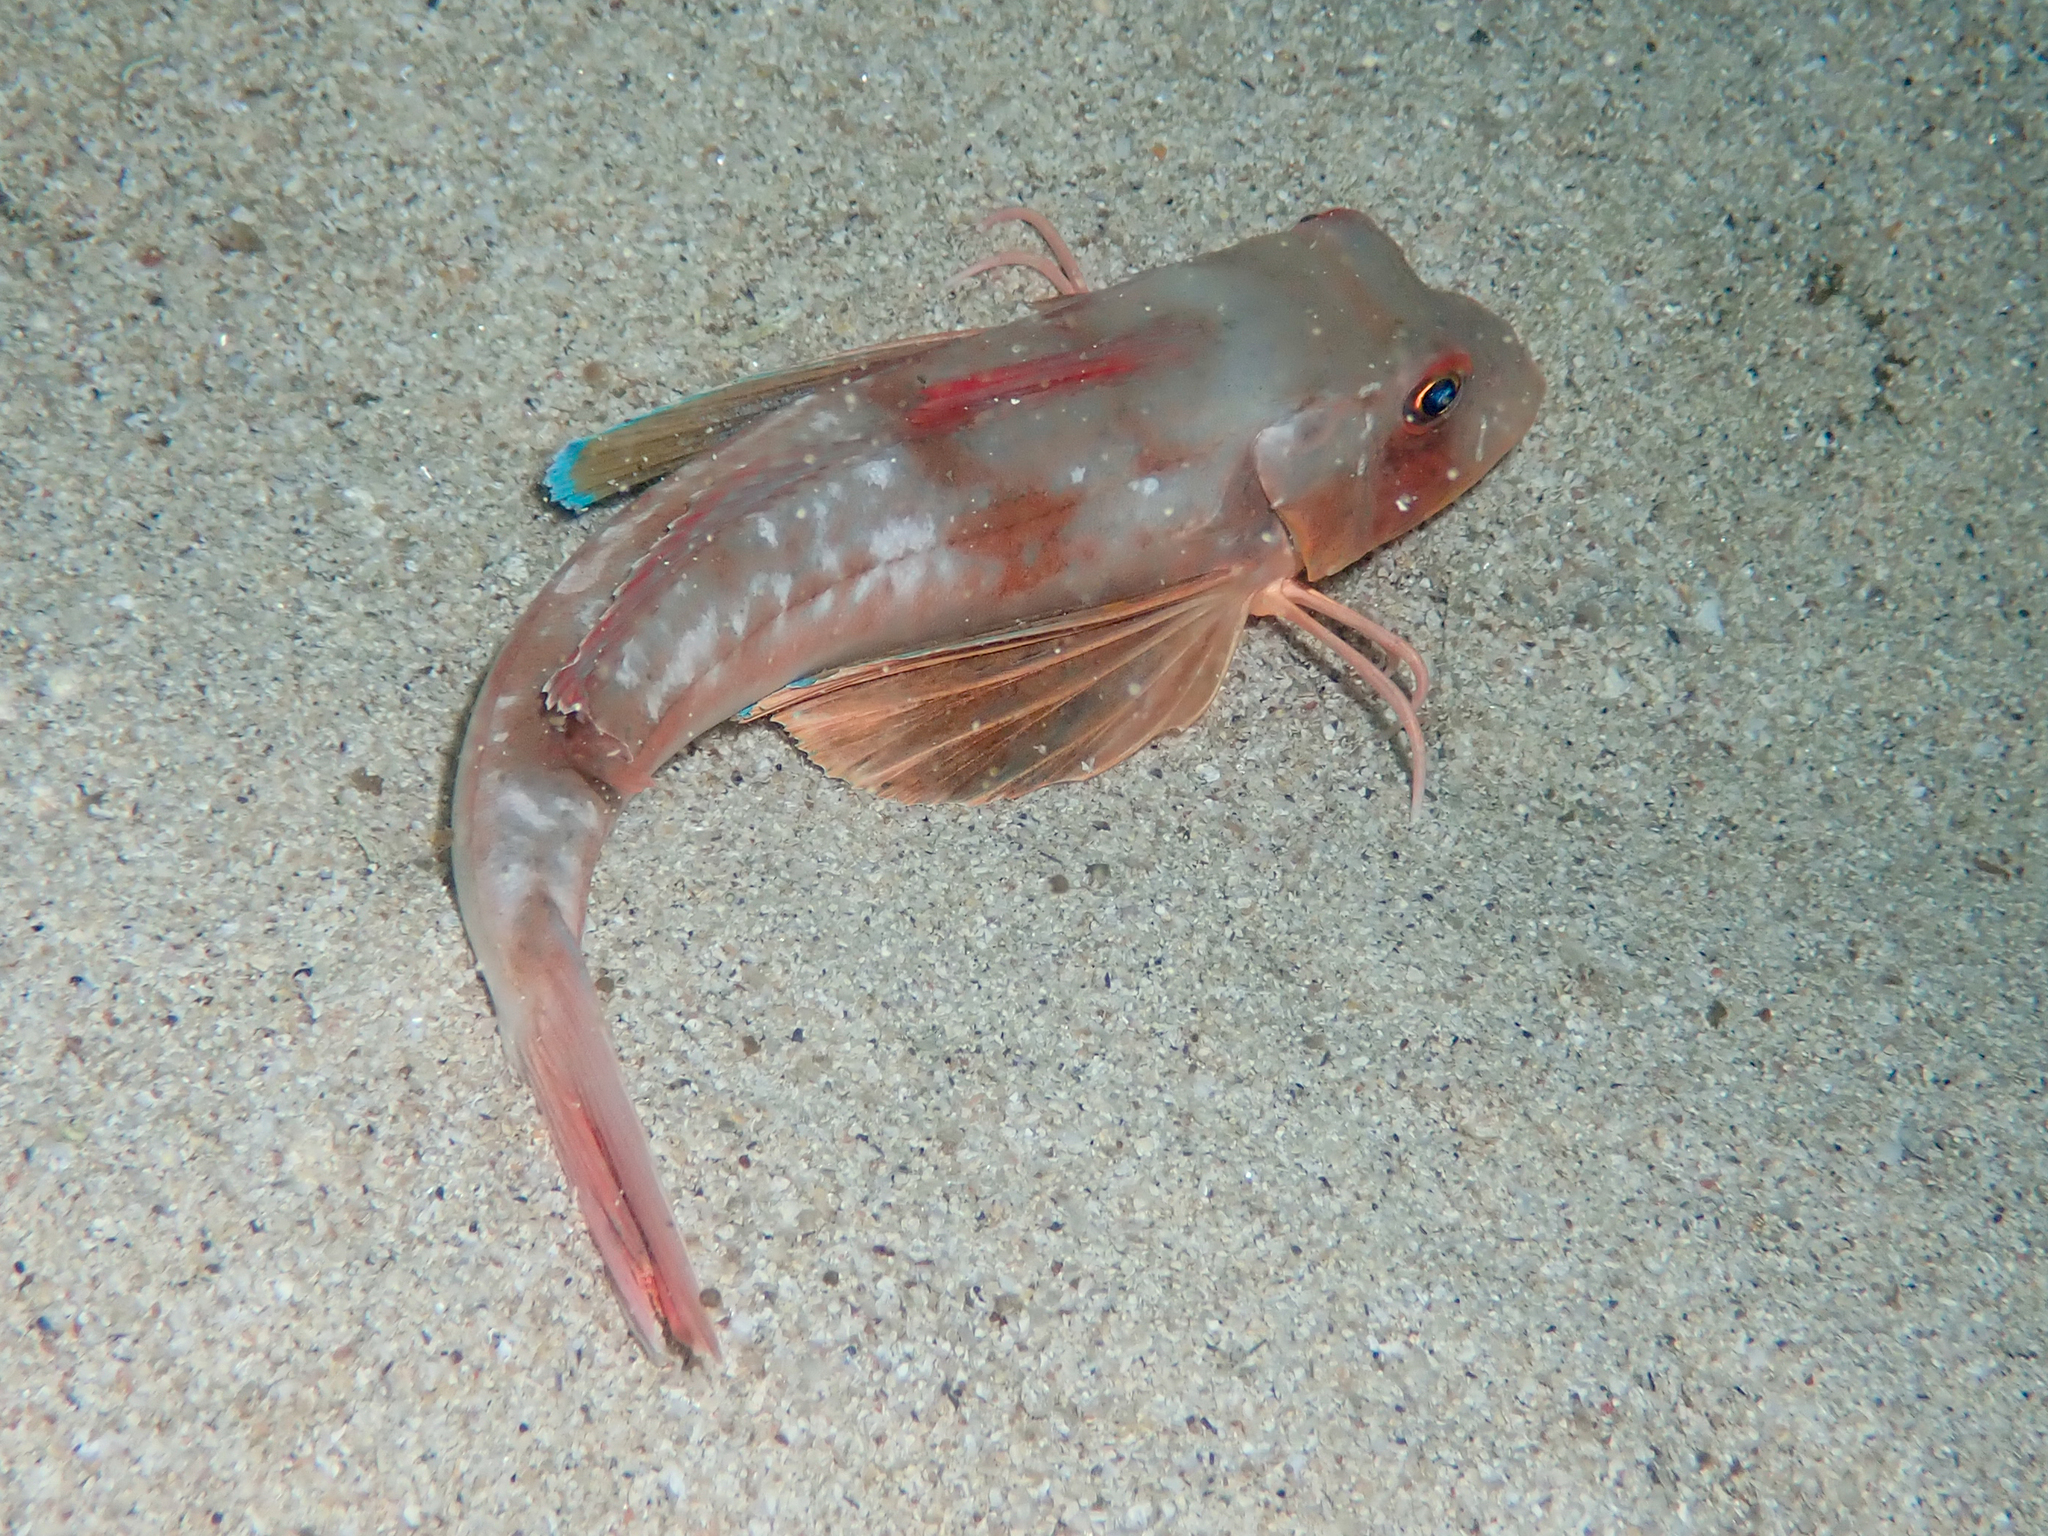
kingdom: Animalia
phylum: Chordata
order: Scorpaeniformes
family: Triglidae
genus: Chelidonichthys
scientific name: Chelidonichthys lucerna
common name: Tub gurnard
